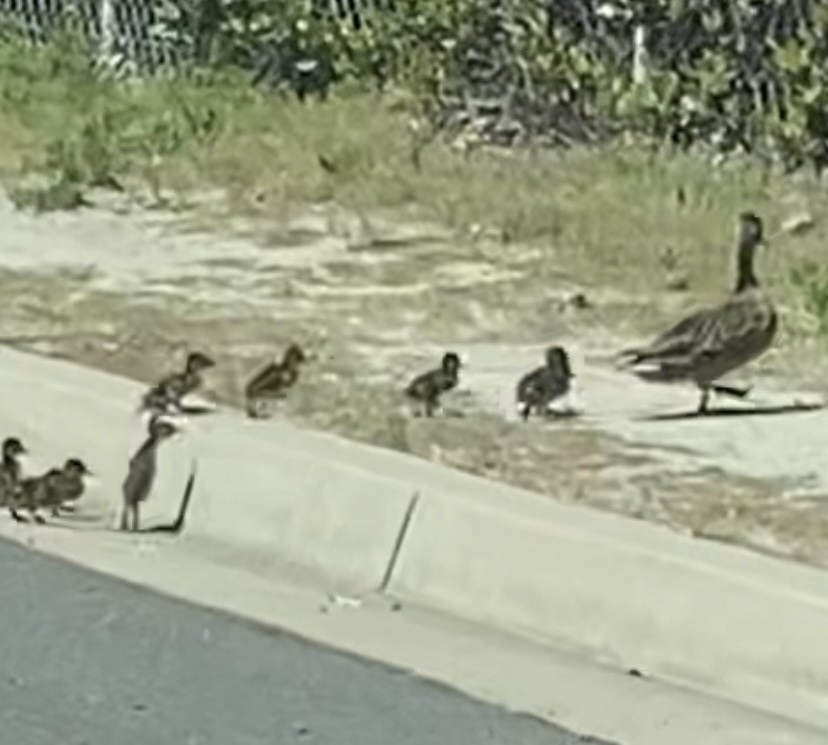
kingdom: Animalia
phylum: Chordata
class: Aves
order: Anseriformes
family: Anatidae
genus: Anas
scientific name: Anas platyrhynchos
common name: Mallard
